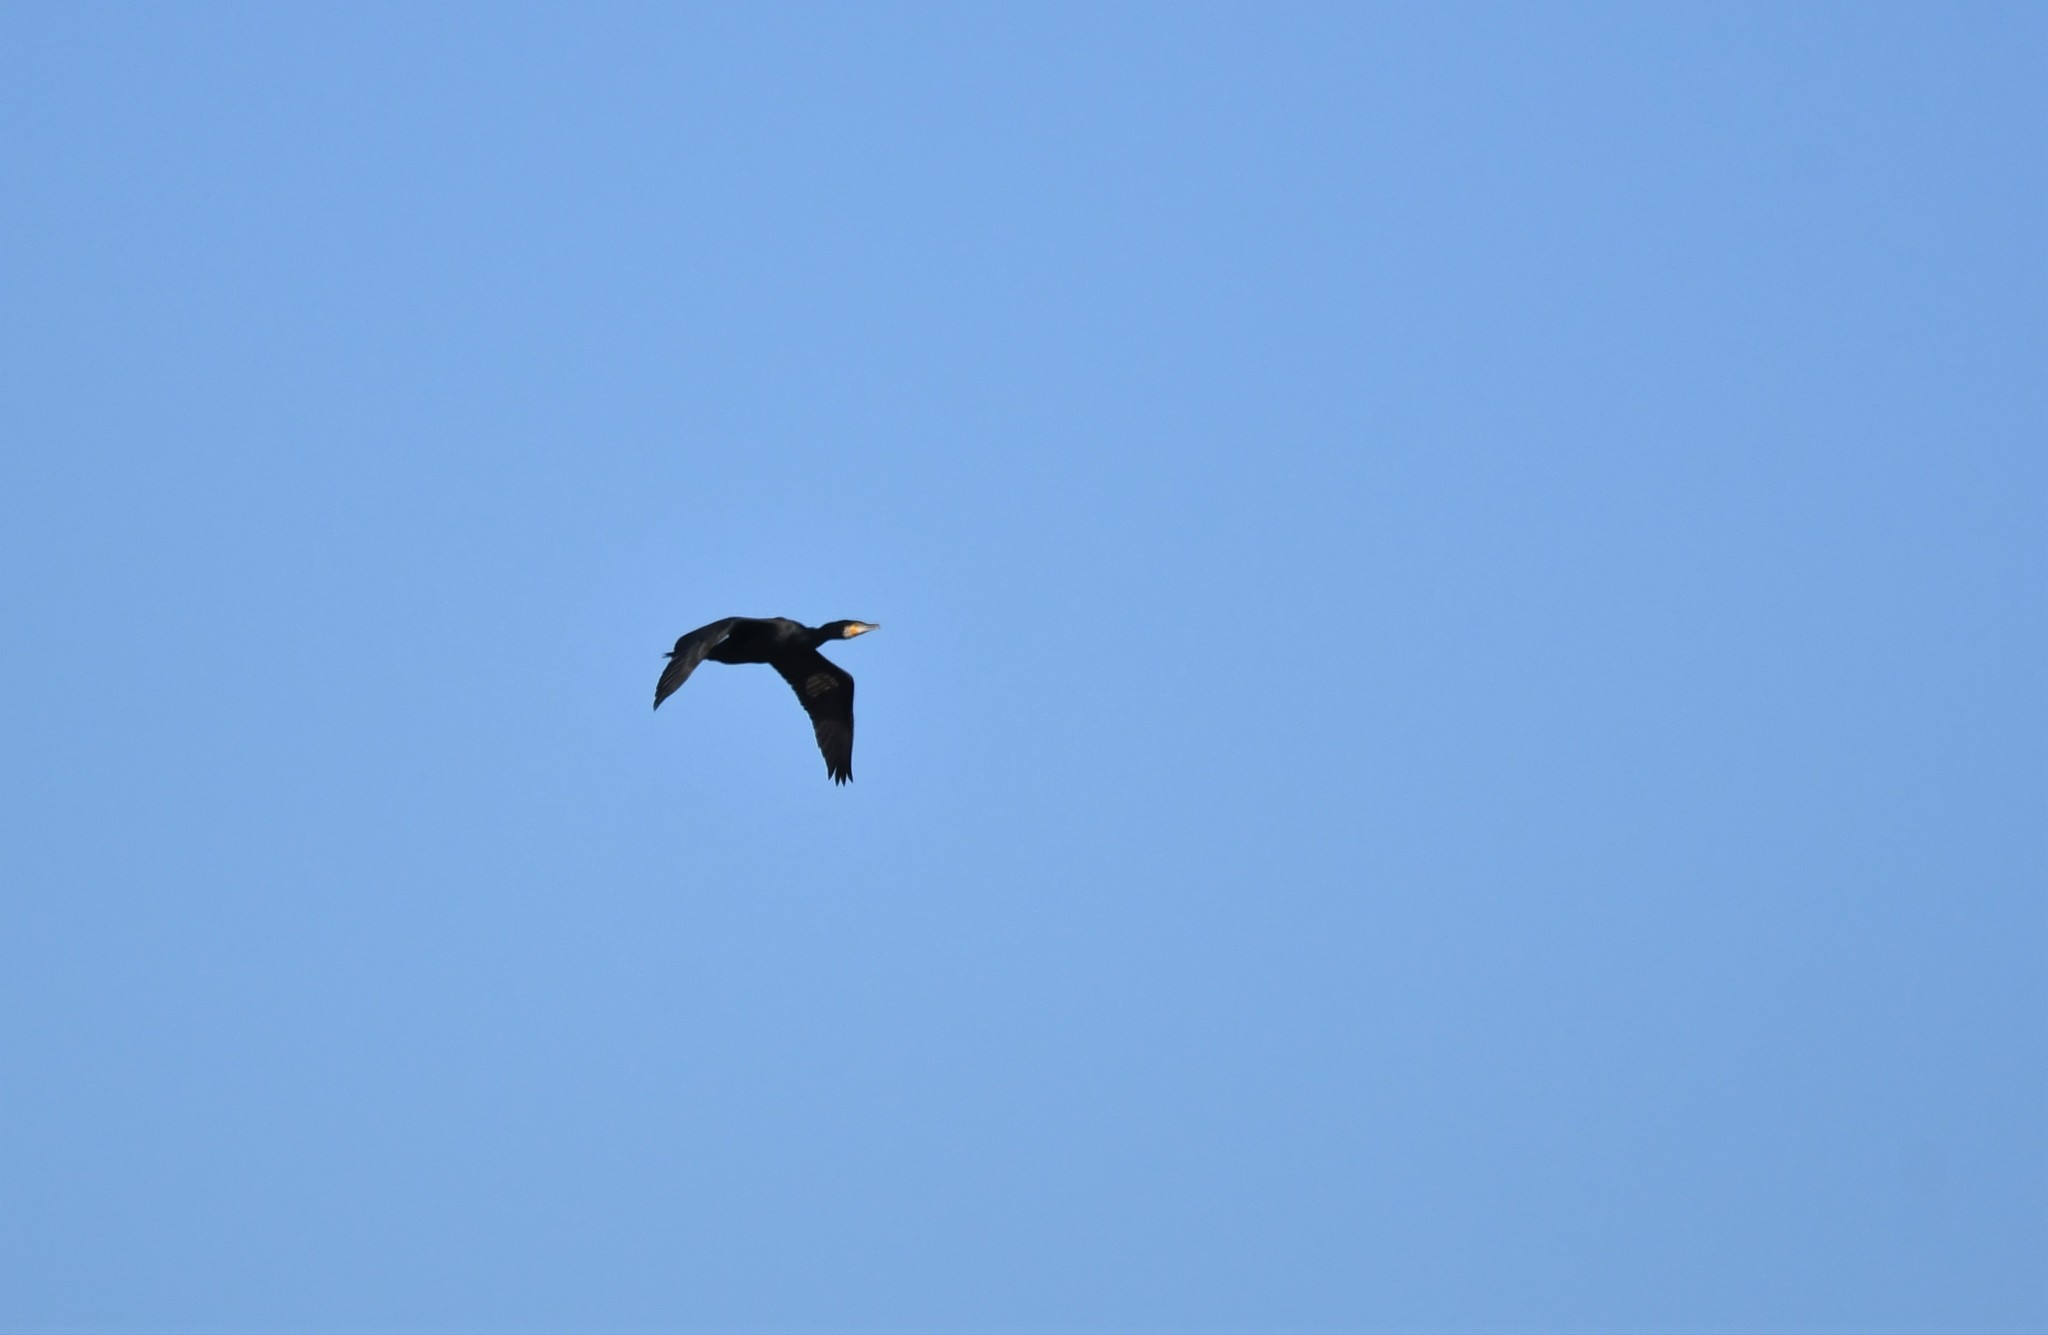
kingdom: Animalia
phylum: Chordata
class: Aves
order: Suliformes
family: Phalacrocoracidae
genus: Phalacrocorax
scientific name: Phalacrocorax carbo
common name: Great cormorant
